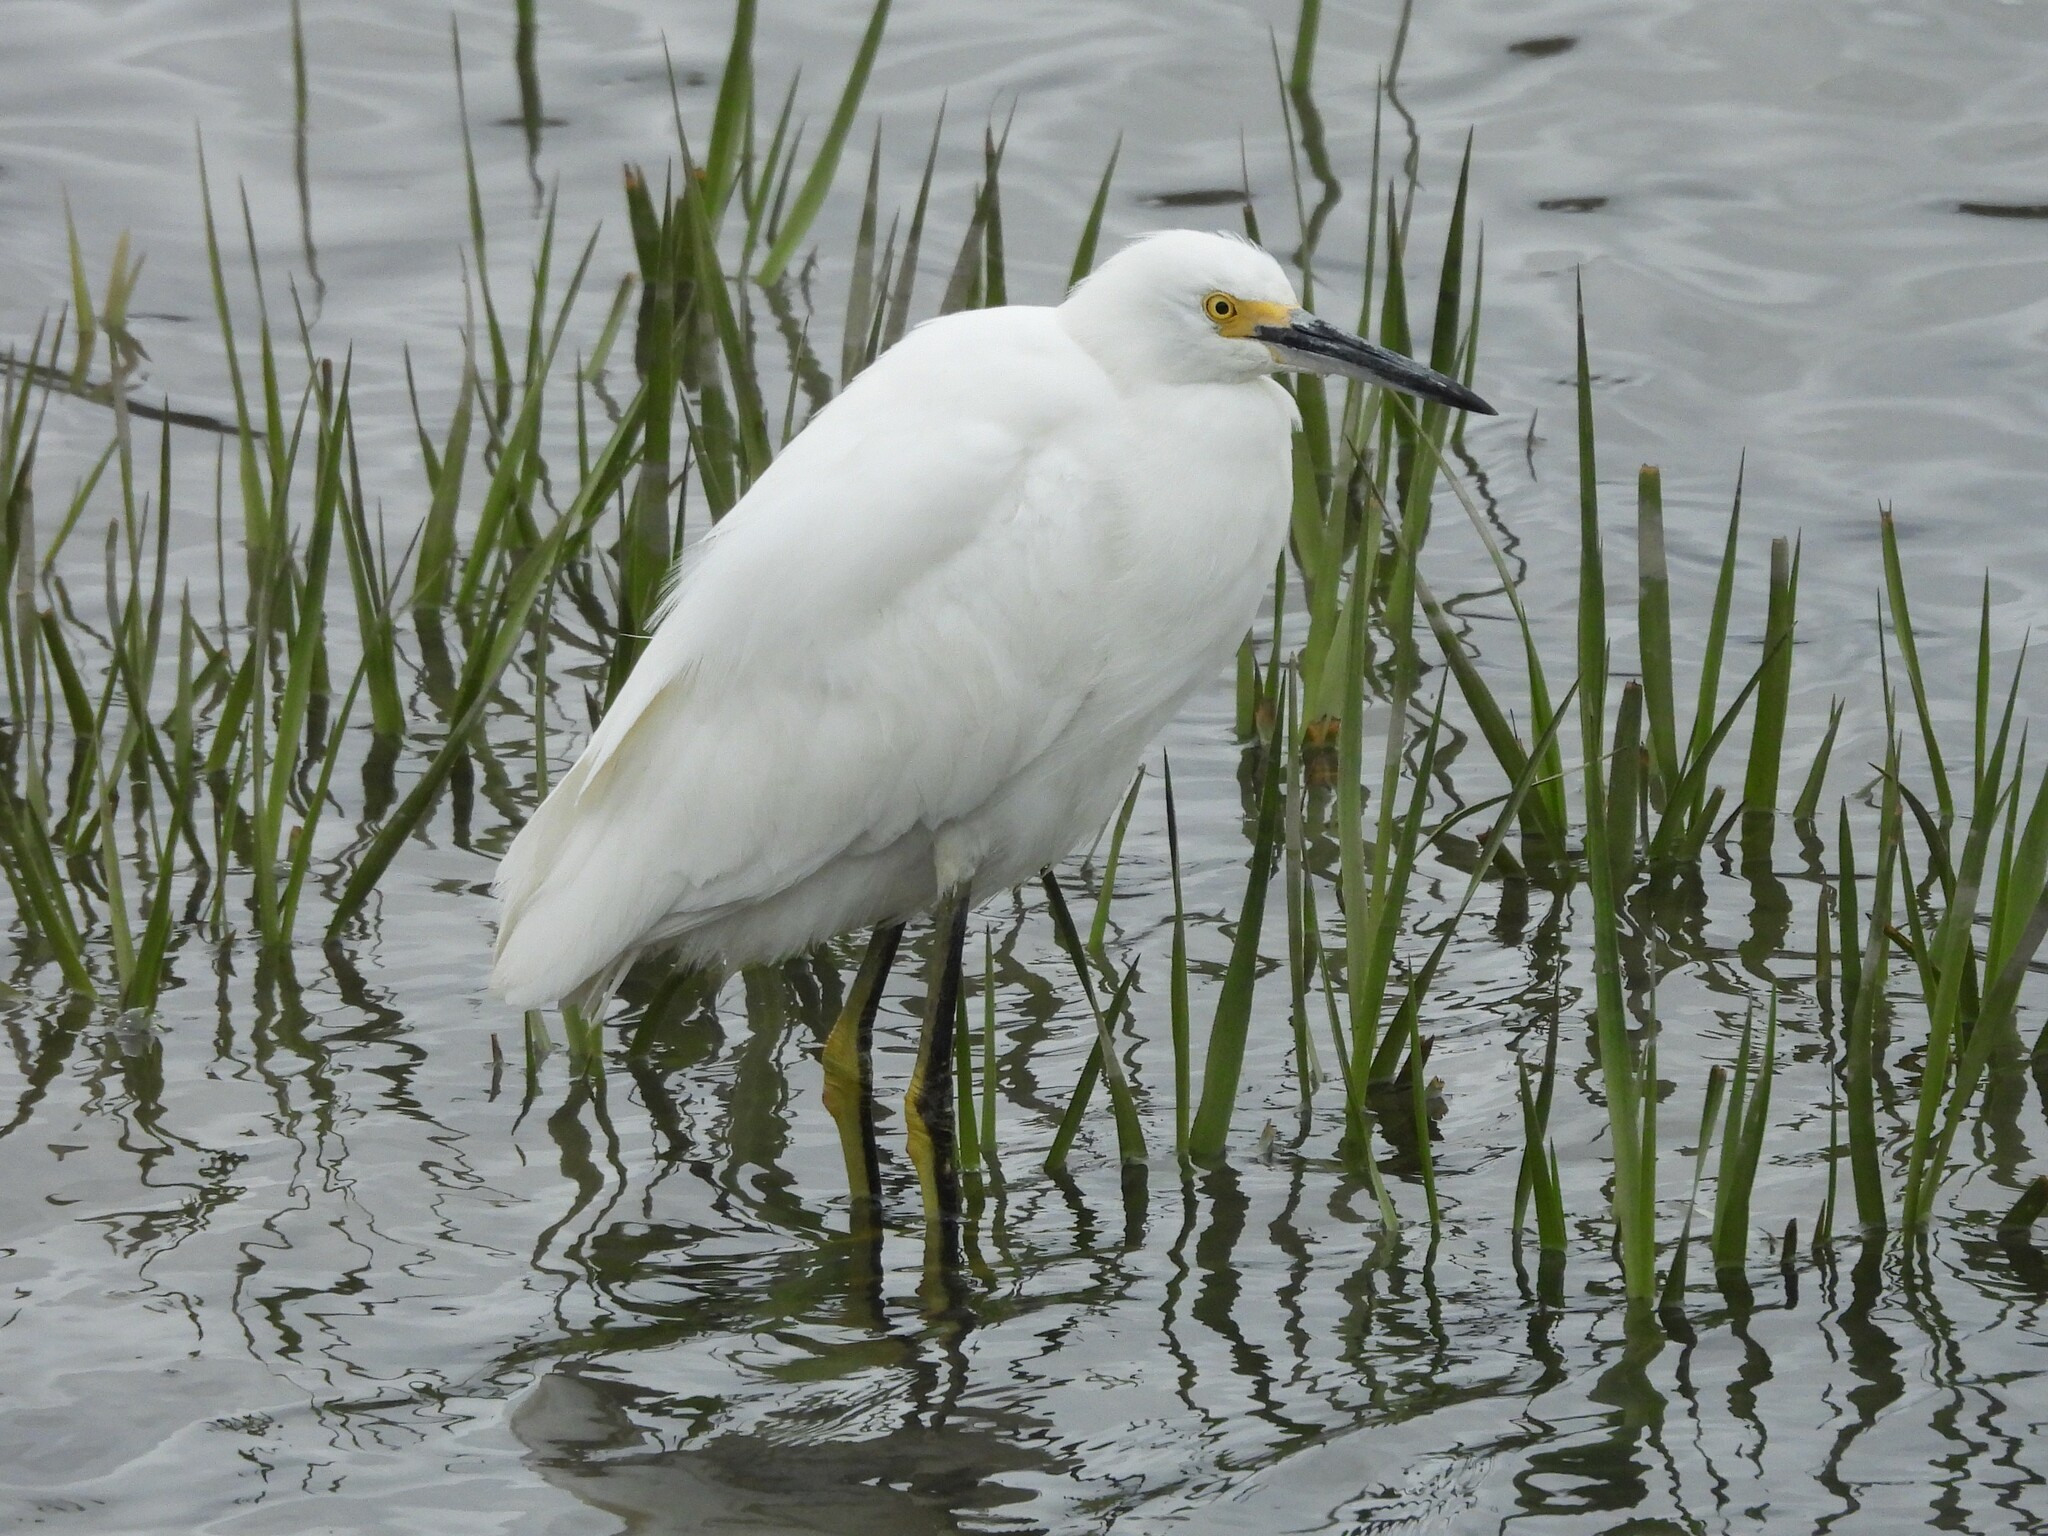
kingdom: Animalia
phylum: Chordata
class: Aves
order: Pelecaniformes
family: Ardeidae
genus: Egretta
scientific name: Egretta thula
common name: Snowy egret
